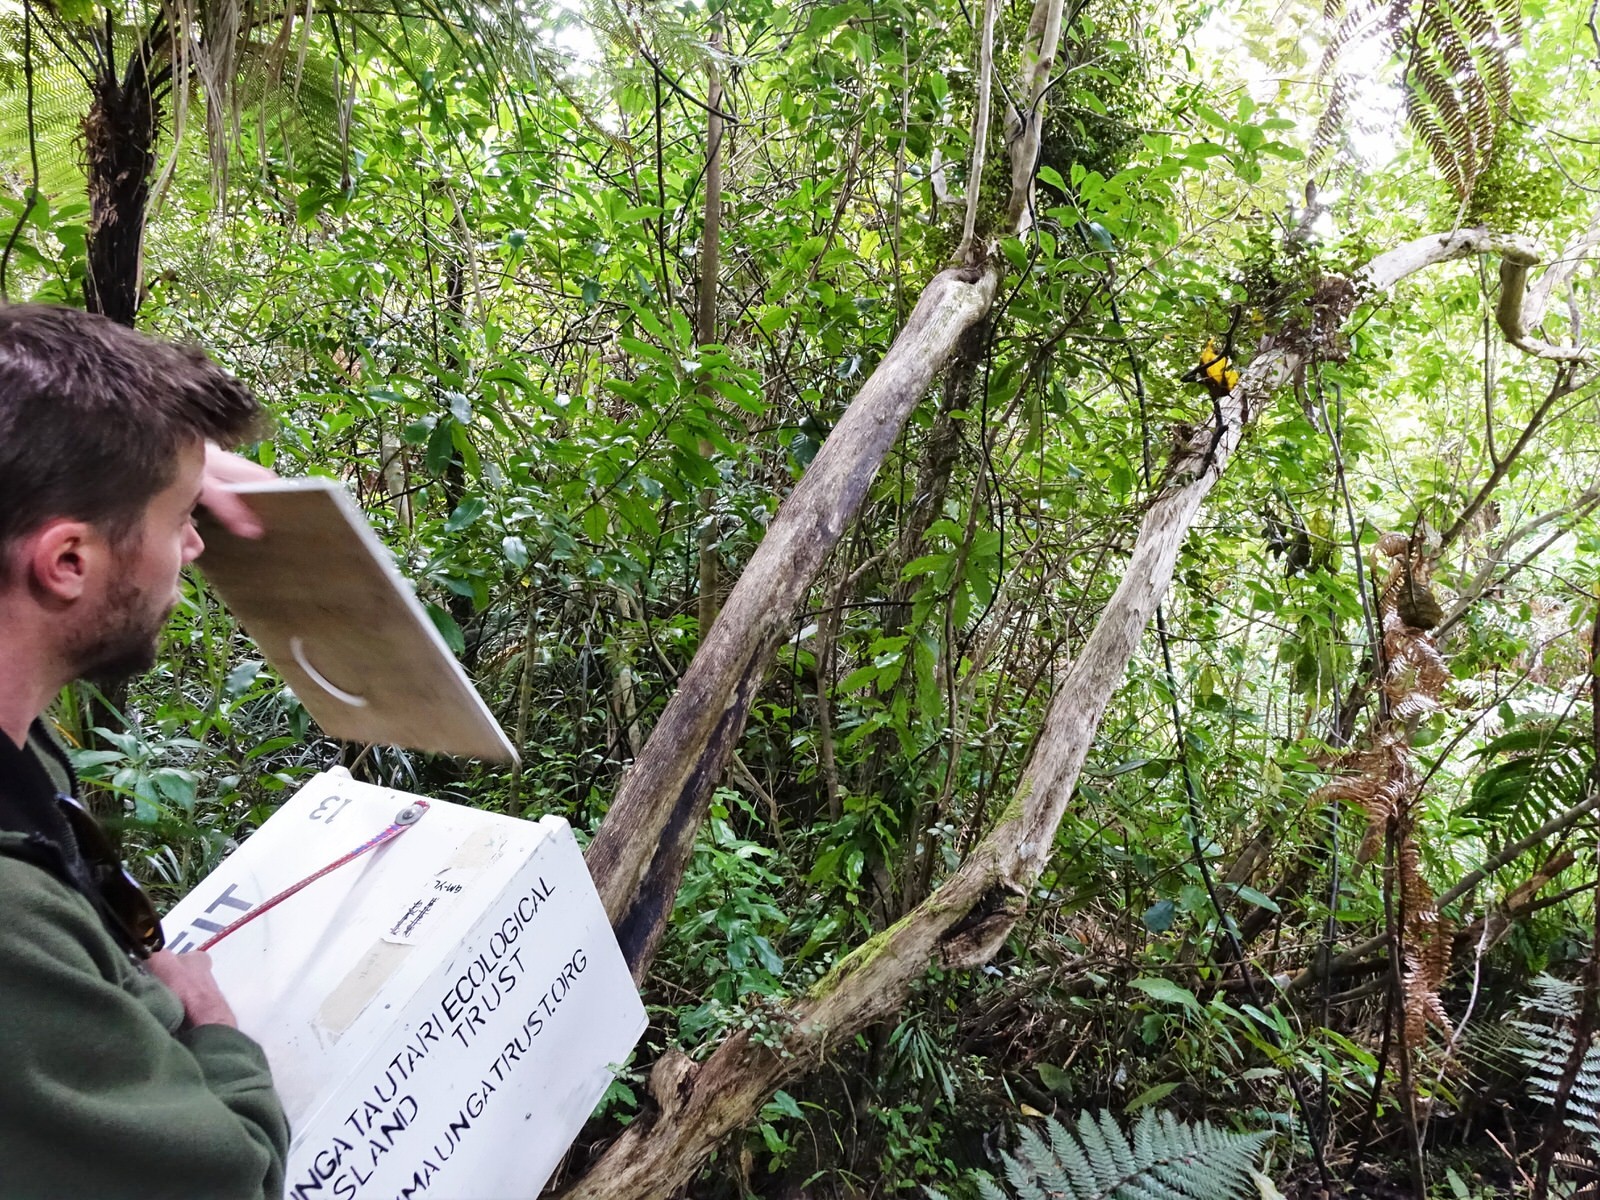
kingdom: Animalia
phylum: Chordata
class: Aves
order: Passeriformes
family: Callaeatidae
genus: Callaeas
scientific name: Callaeas cinereus
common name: South island kokako
